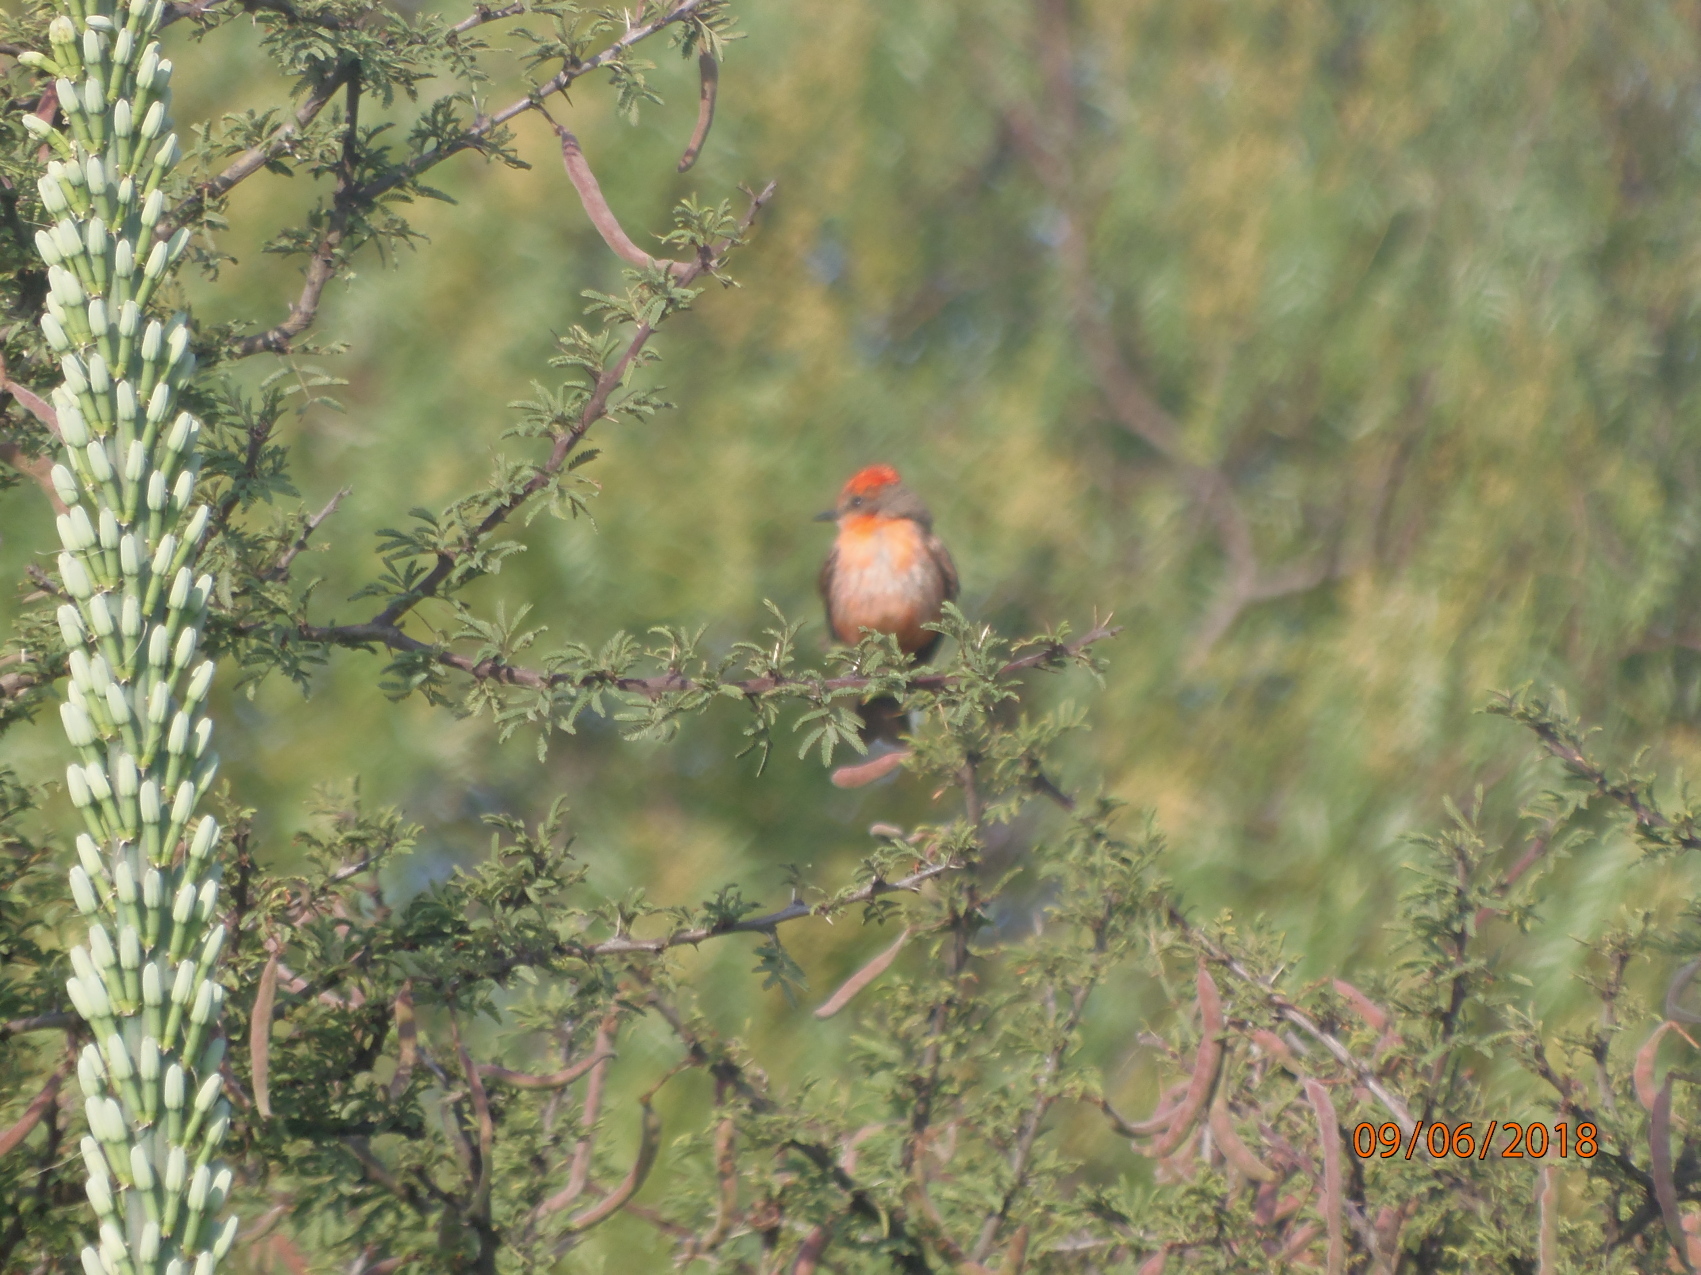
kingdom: Animalia
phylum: Chordata
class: Aves
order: Passeriformes
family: Tyrannidae
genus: Pyrocephalus
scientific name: Pyrocephalus rubinus
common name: Vermilion flycatcher
